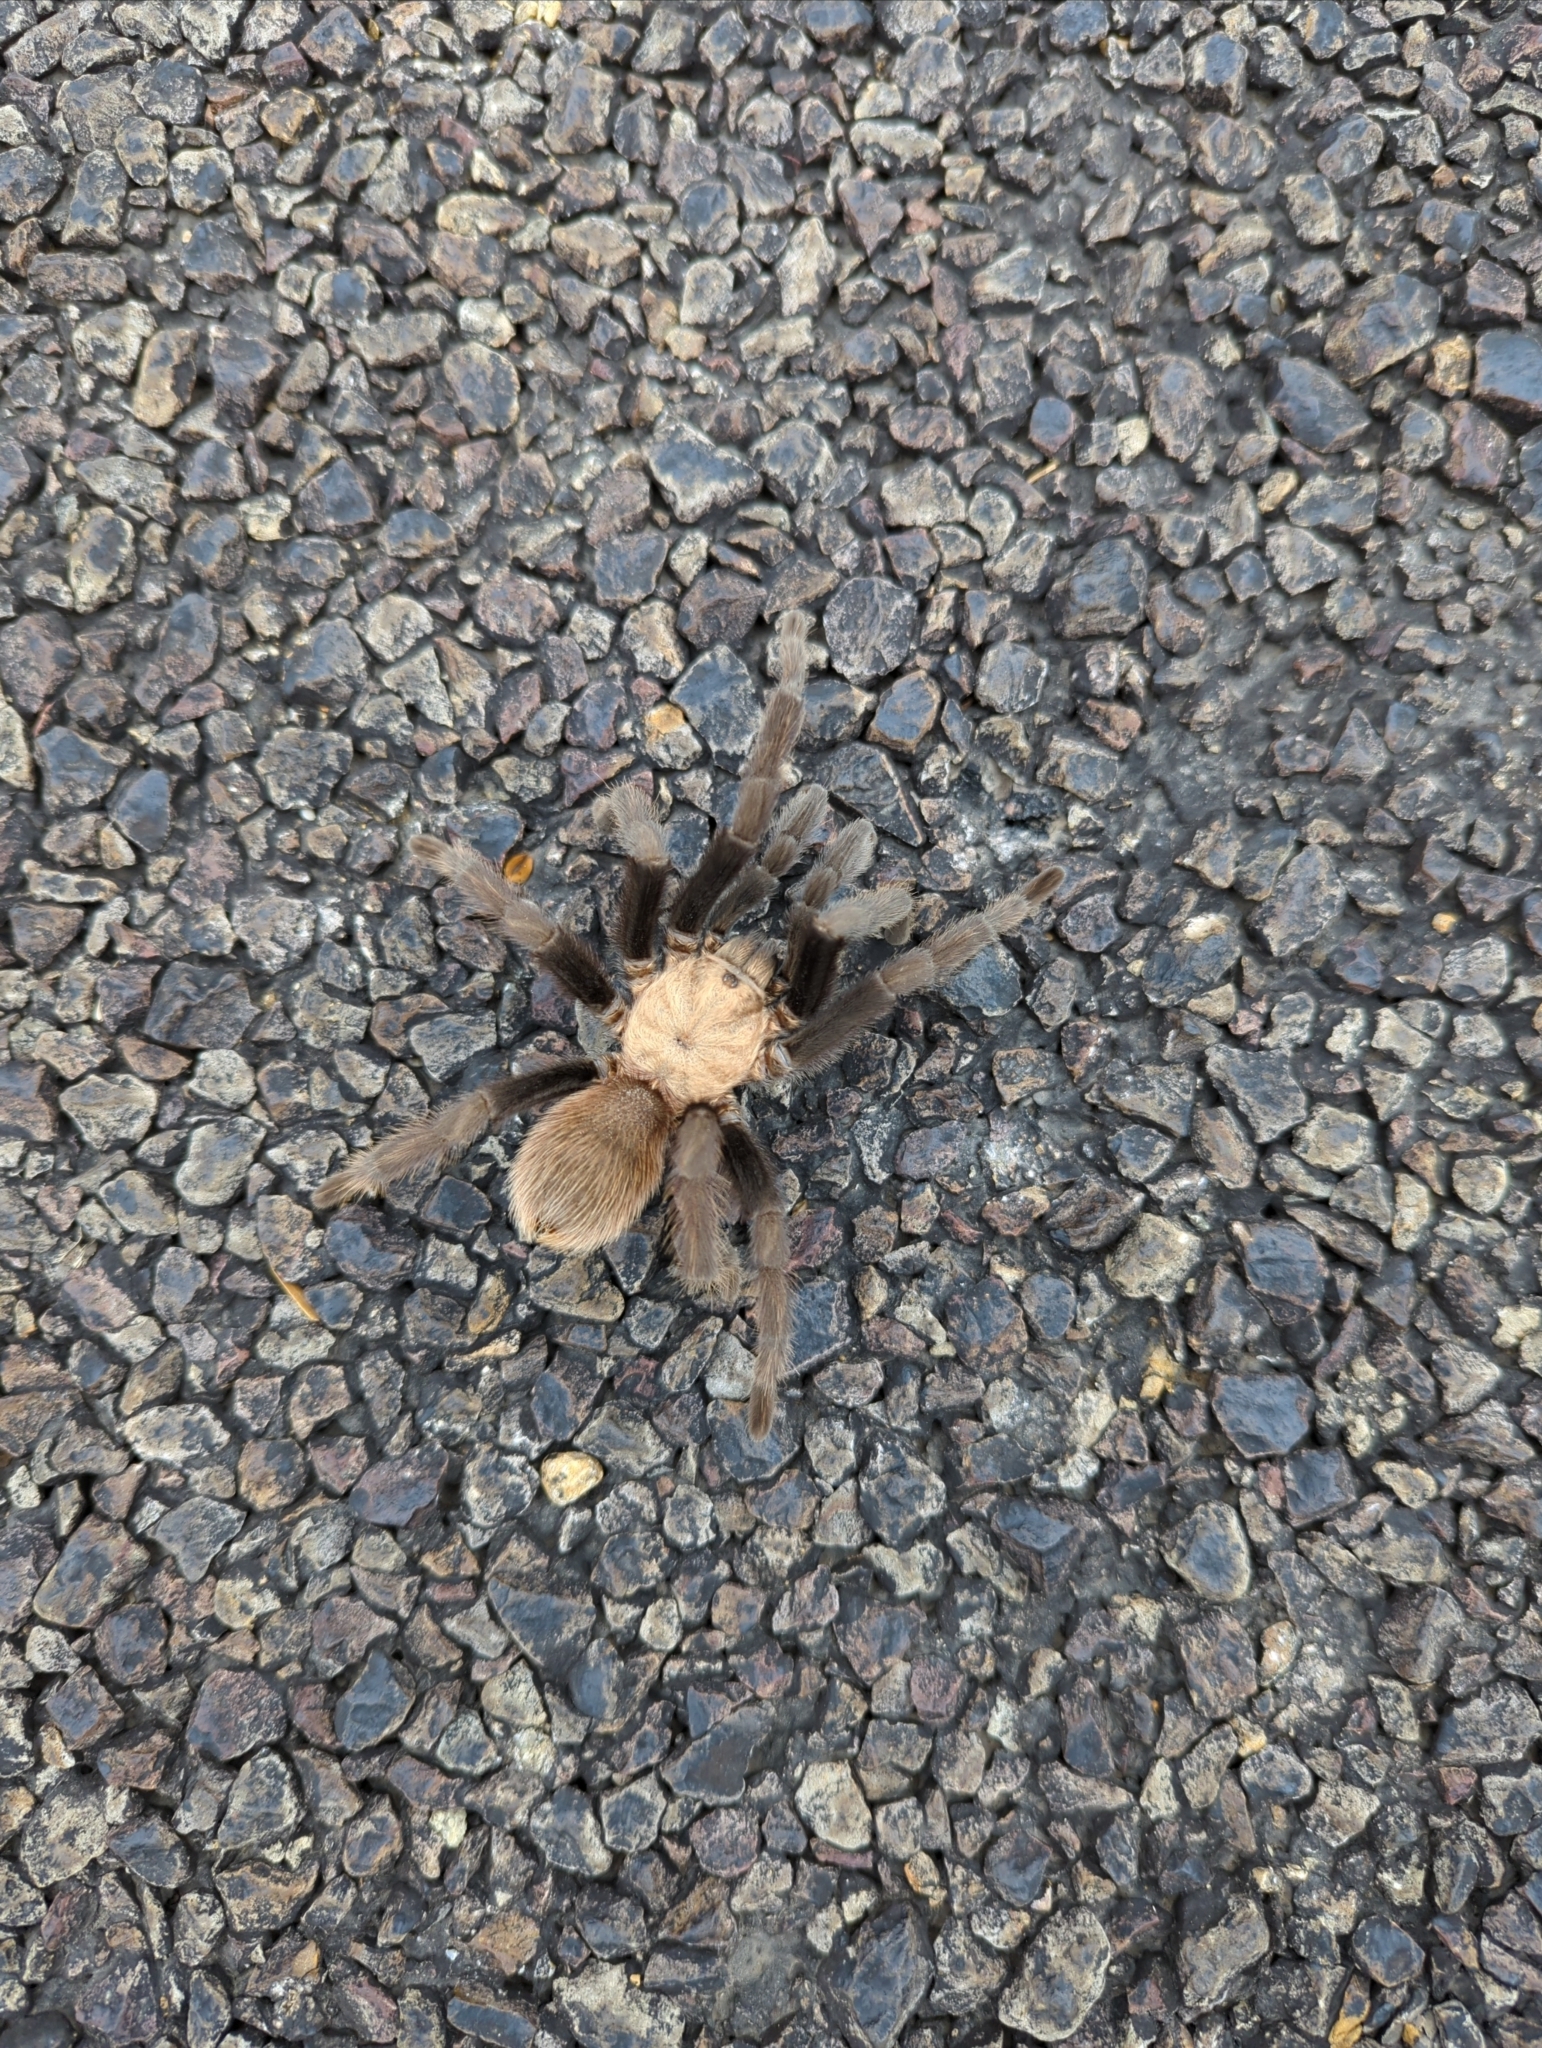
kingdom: Animalia
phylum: Arthropoda
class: Arachnida
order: Araneae
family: Theraphosidae
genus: Aphonopelma
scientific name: Aphonopelma hentzi
